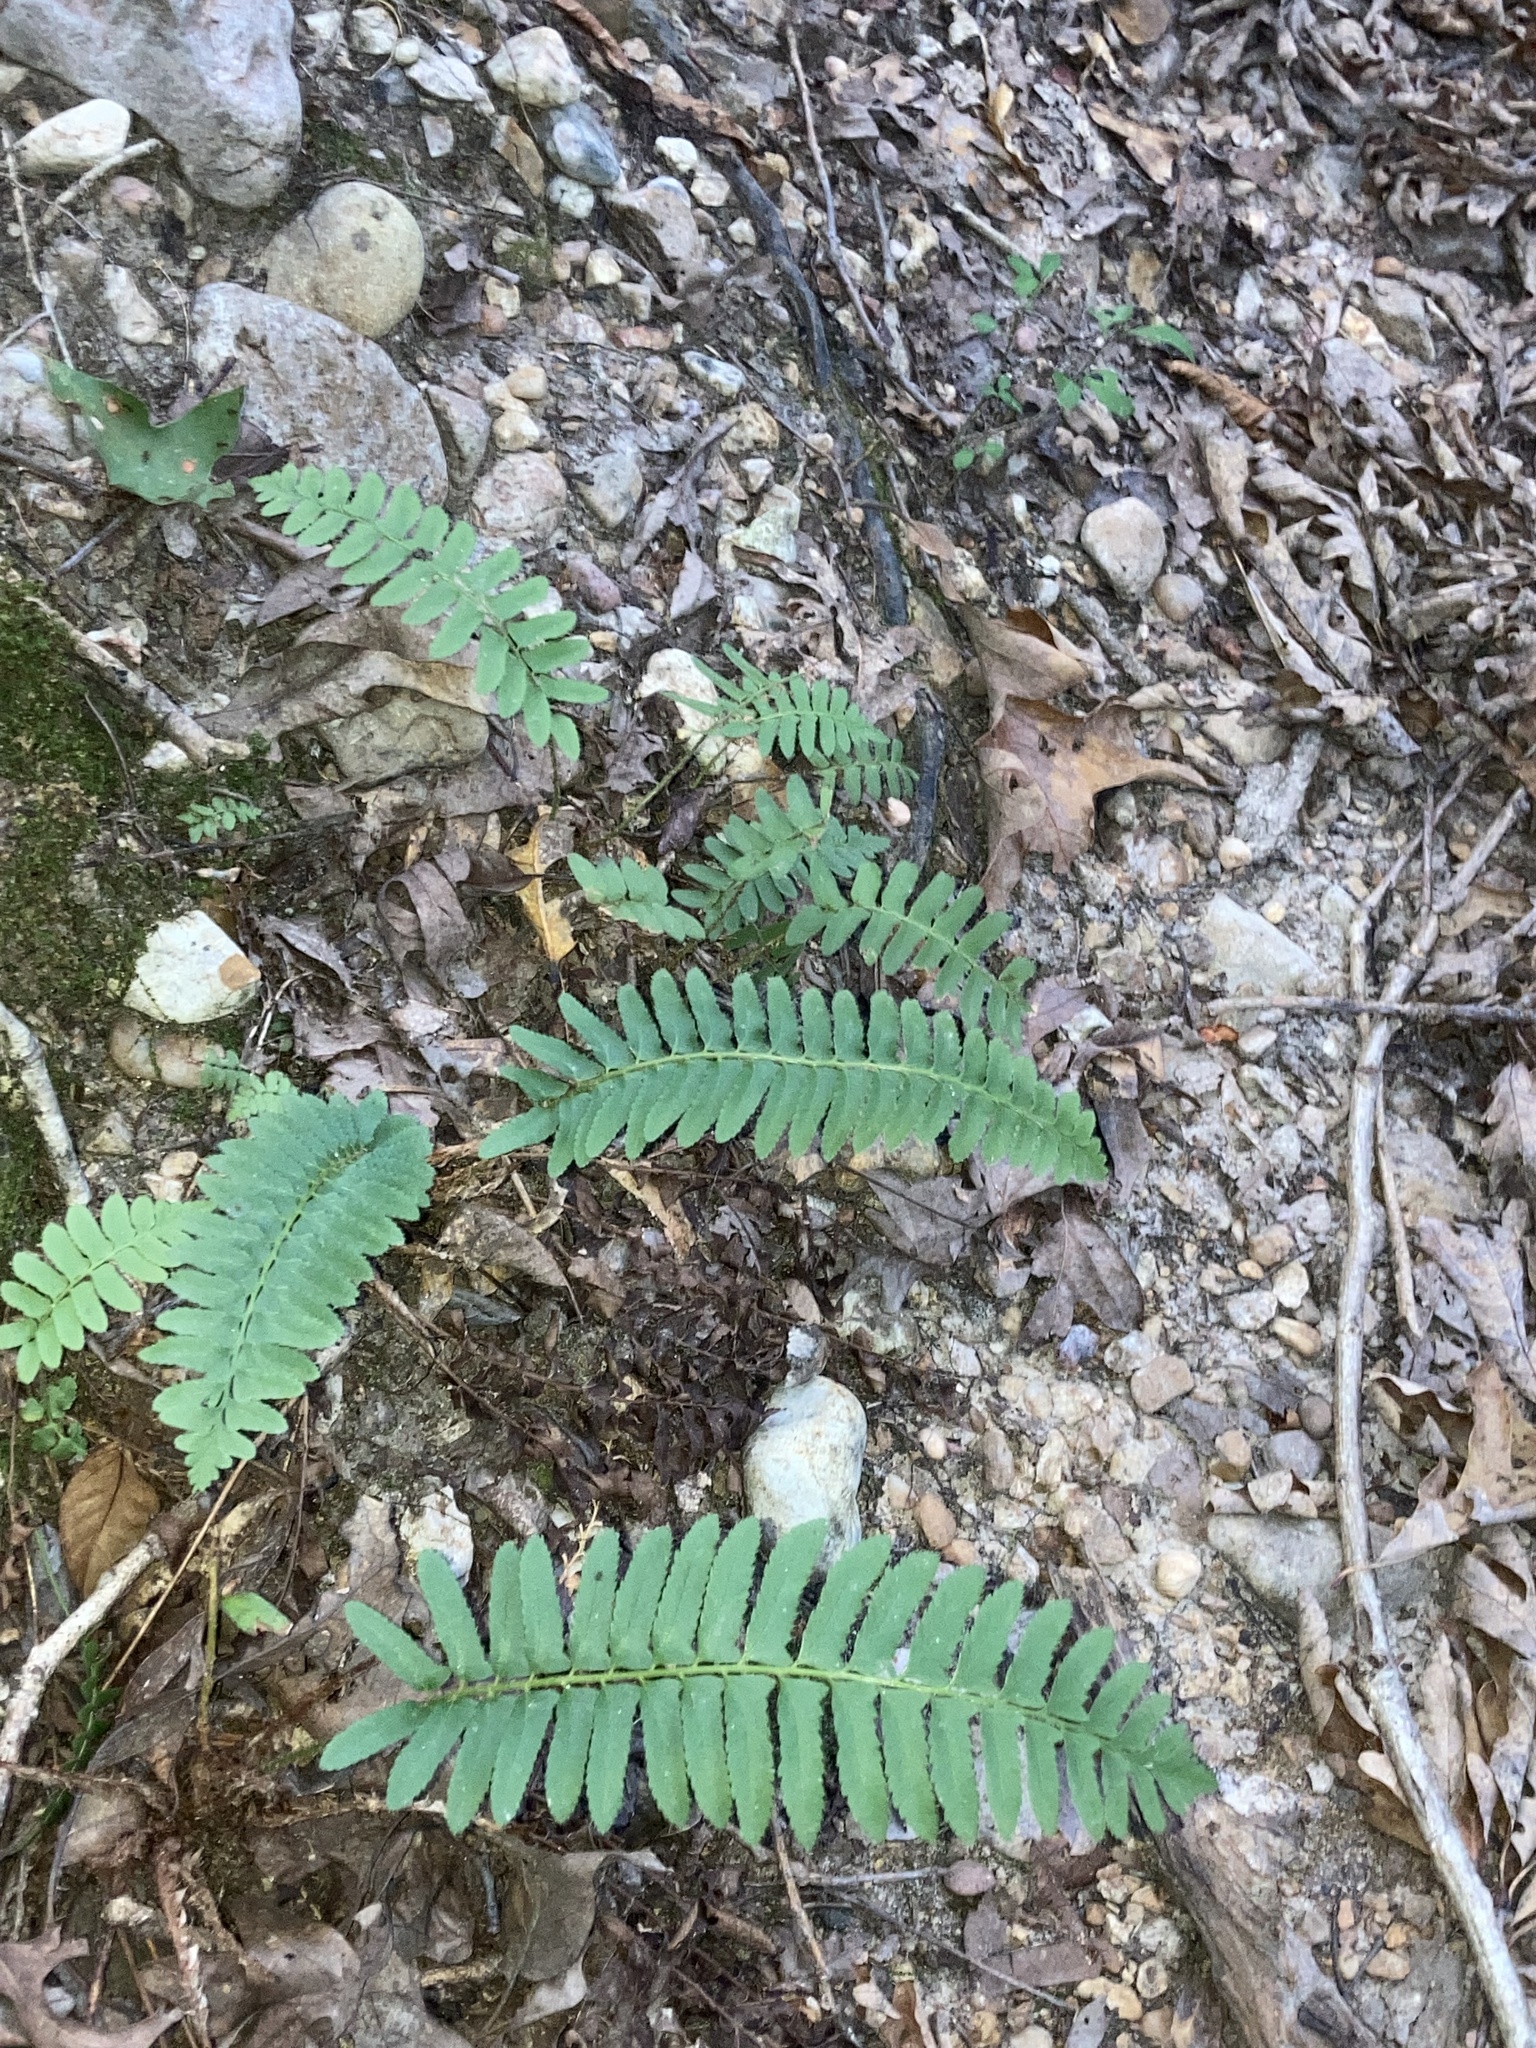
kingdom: Plantae
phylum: Tracheophyta
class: Polypodiopsida
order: Polypodiales
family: Dryopteridaceae
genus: Polystichum
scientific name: Polystichum acrostichoides
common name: Christmas fern
